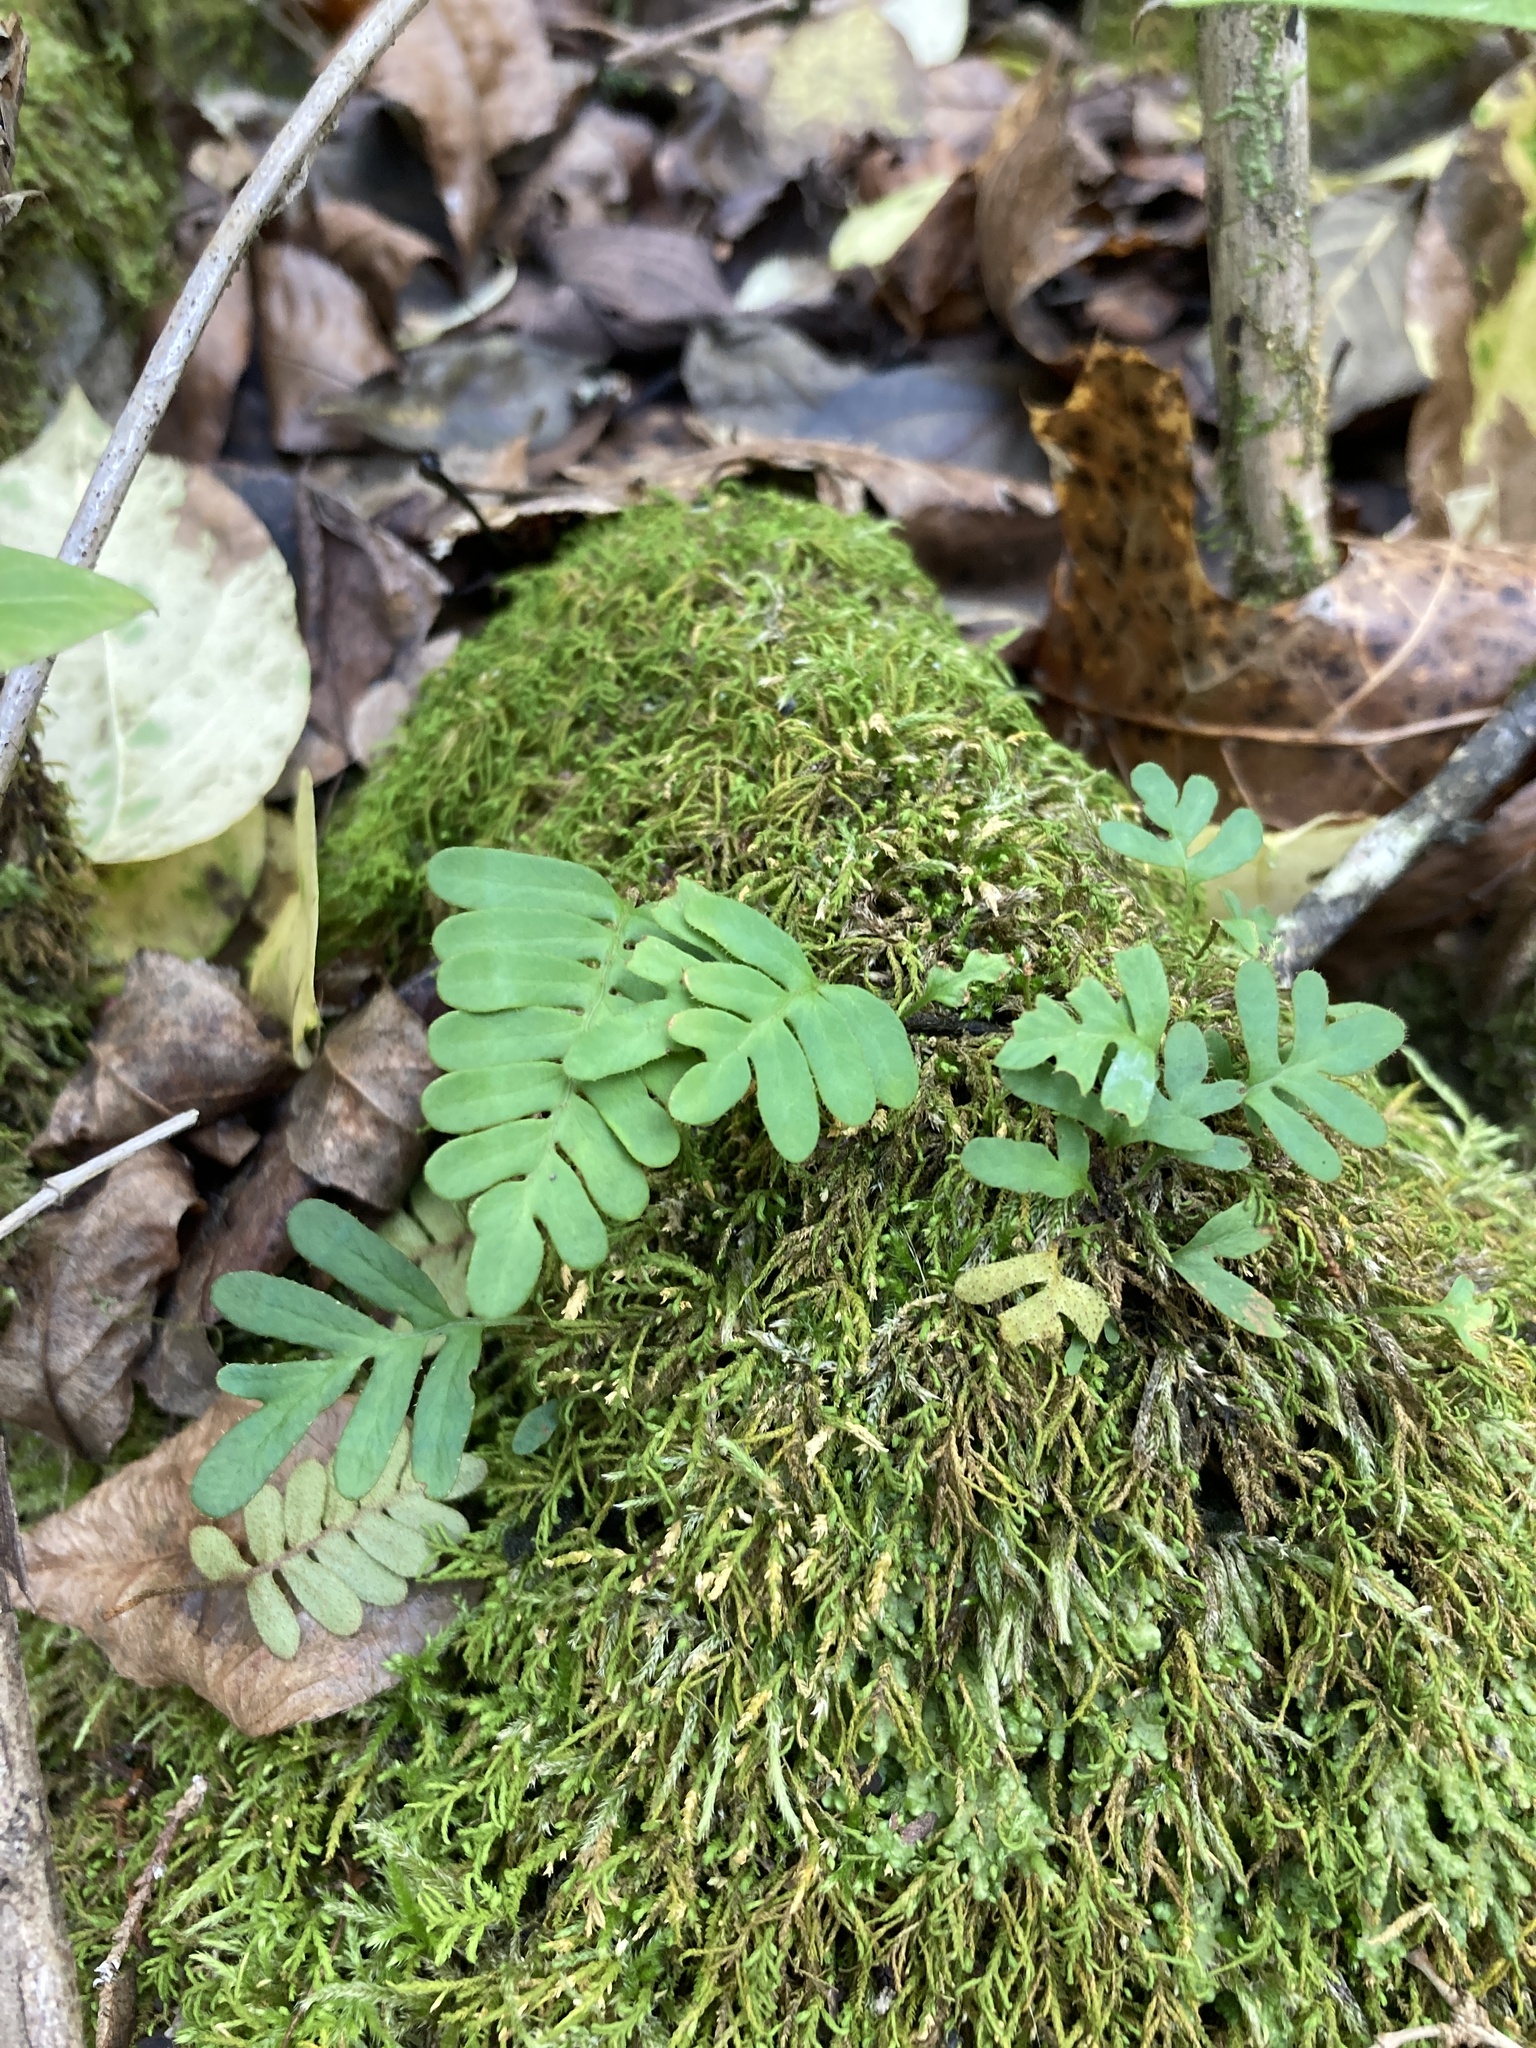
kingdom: Plantae
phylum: Tracheophyta
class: Polypodiopsida
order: Polypodiales
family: Polypodiaceae
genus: Pleopeltis
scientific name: Pleopeltis michauxiana
